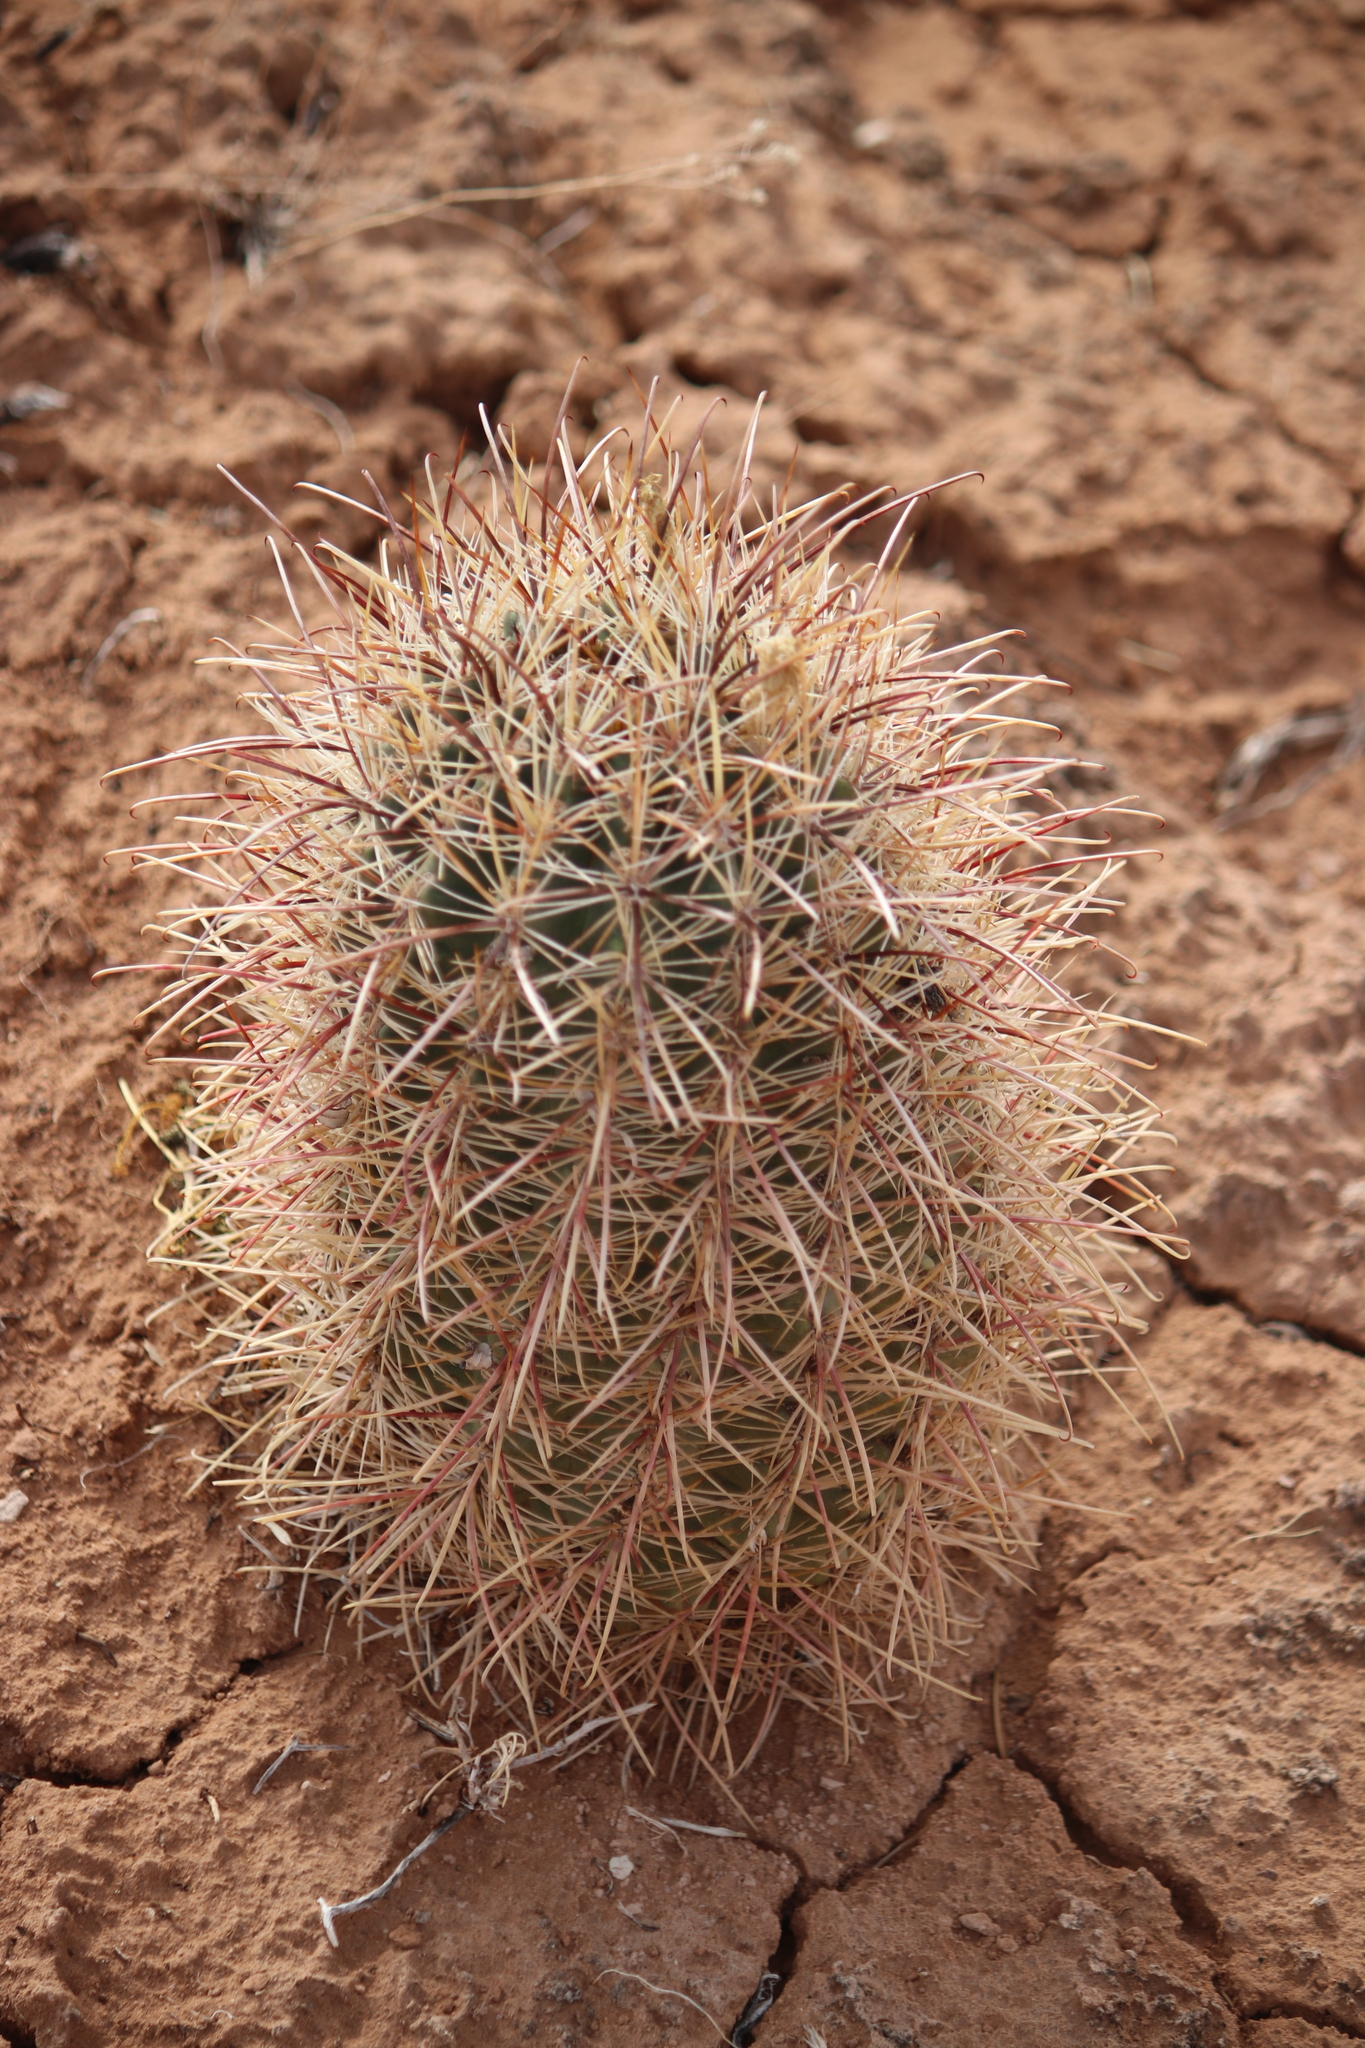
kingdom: Plantae
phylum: Tracheophyta
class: Magnoliopsida
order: Caryophyllales
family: Cactaceae
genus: Sclerocactus
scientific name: Sclerocactus parviflorus
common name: Small-flower fishhook cactus
